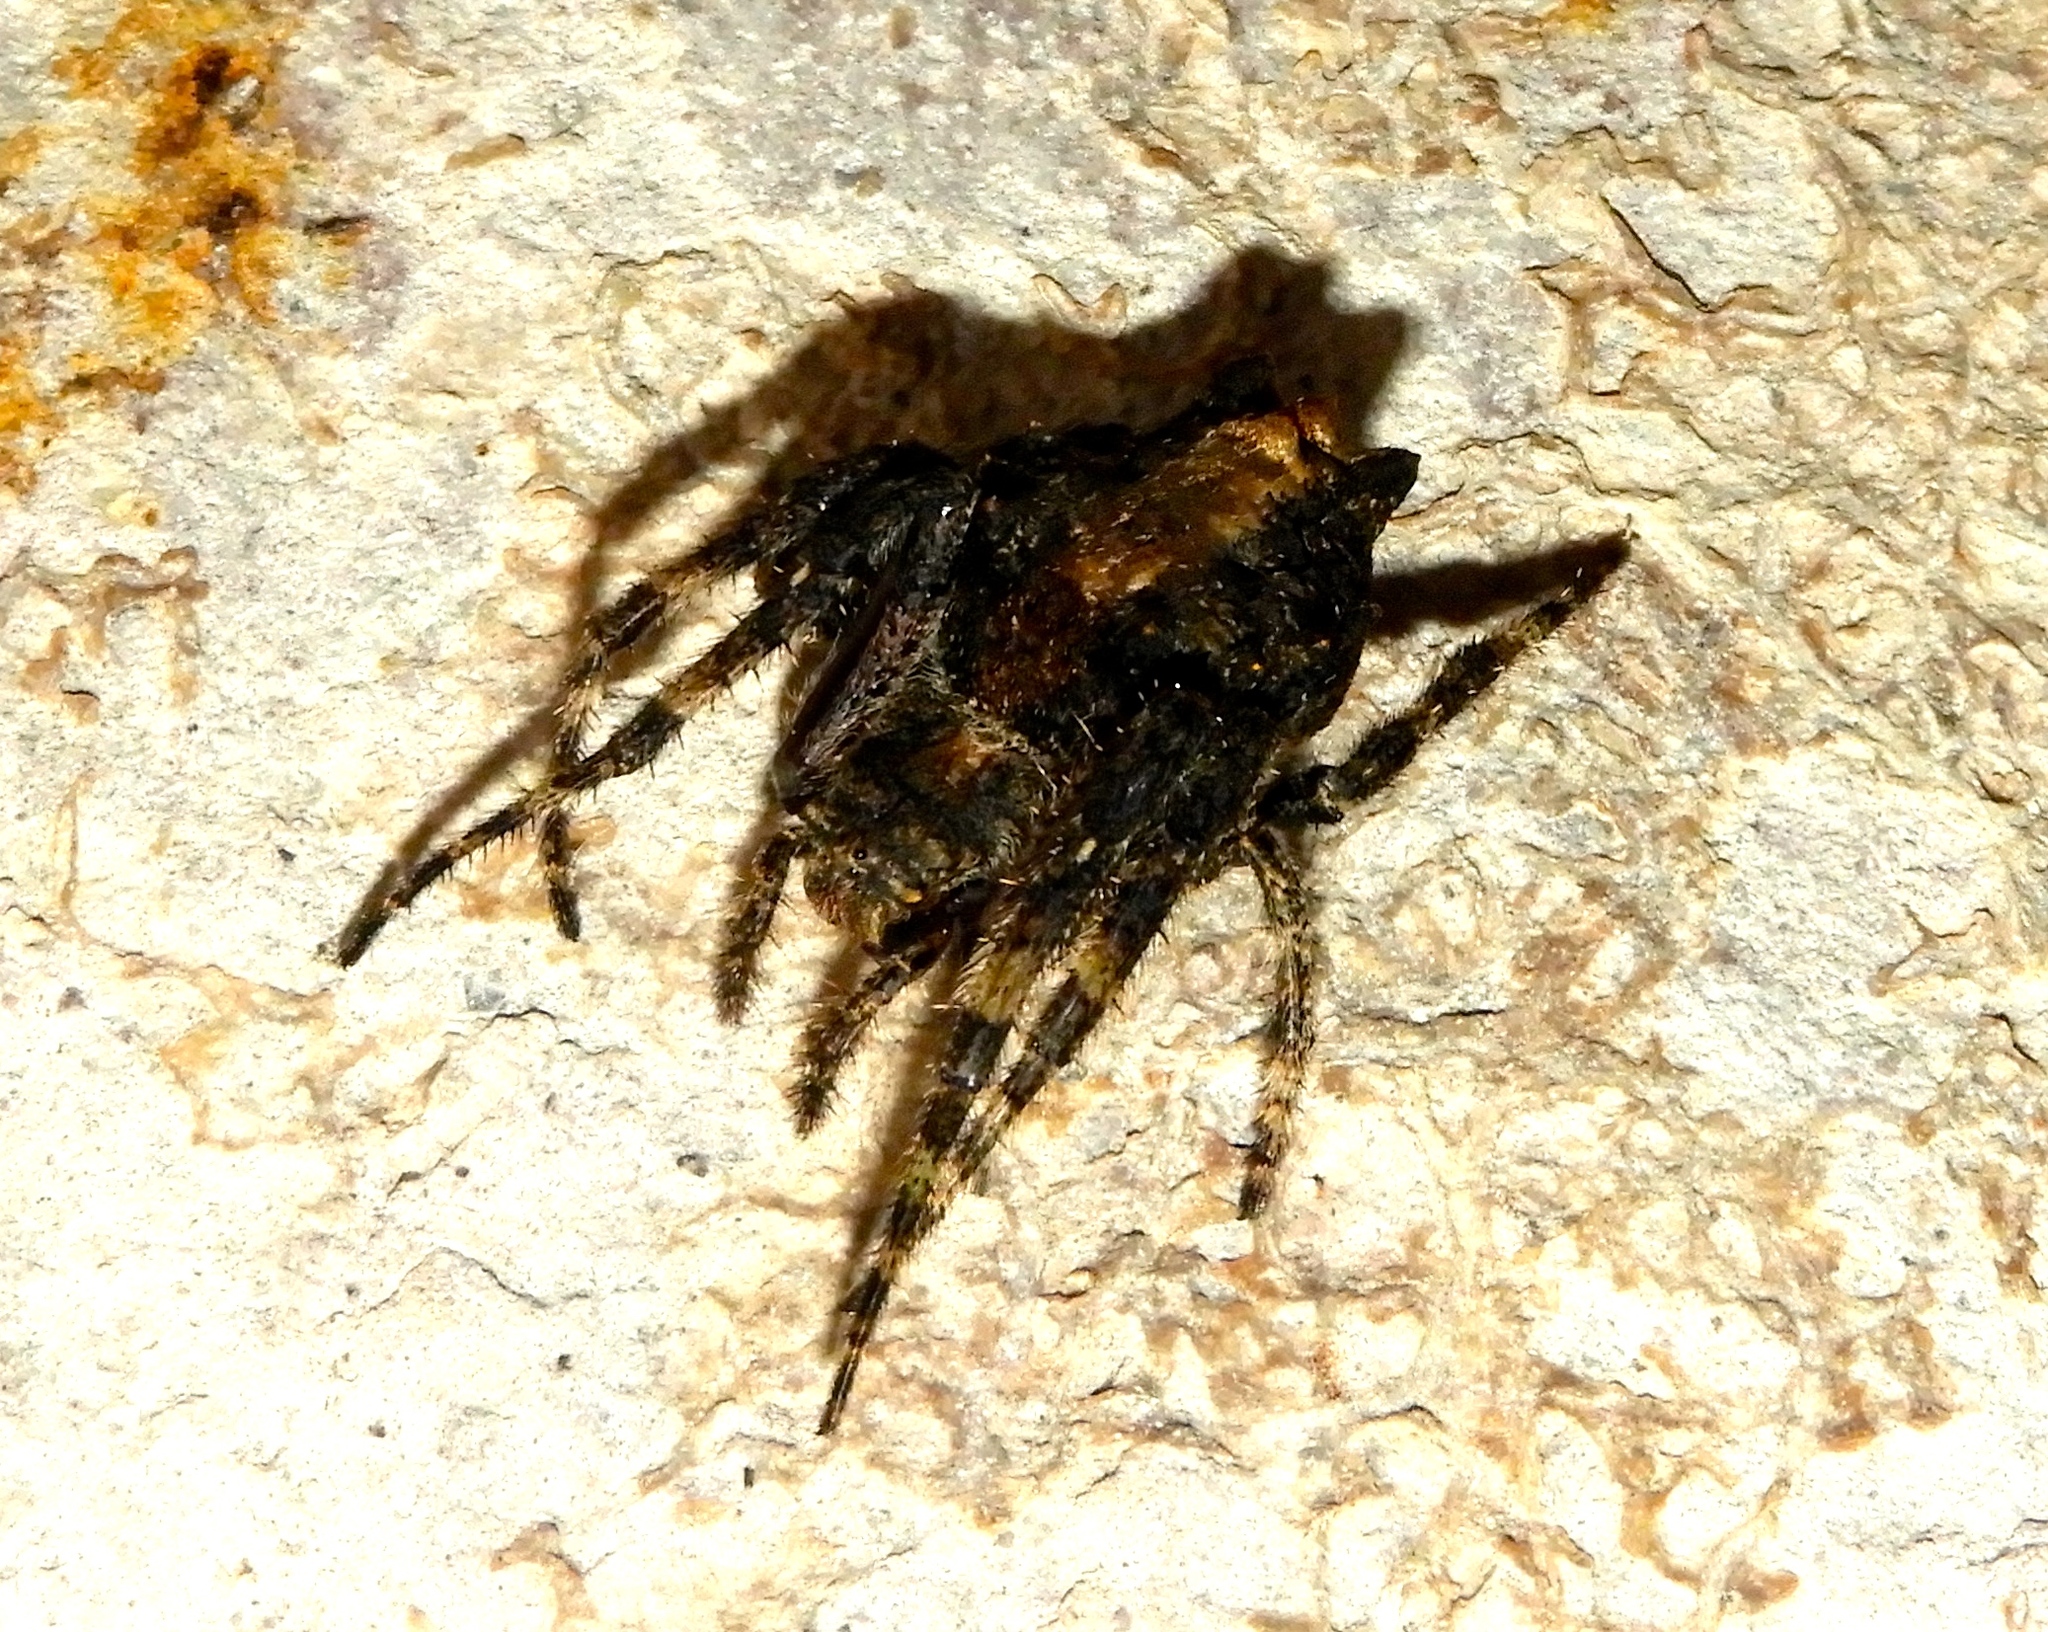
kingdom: Animalia
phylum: Arthropoda
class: Arachnida
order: Araneae
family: Araneidae
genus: Wagneriana
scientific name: Wagneriana
